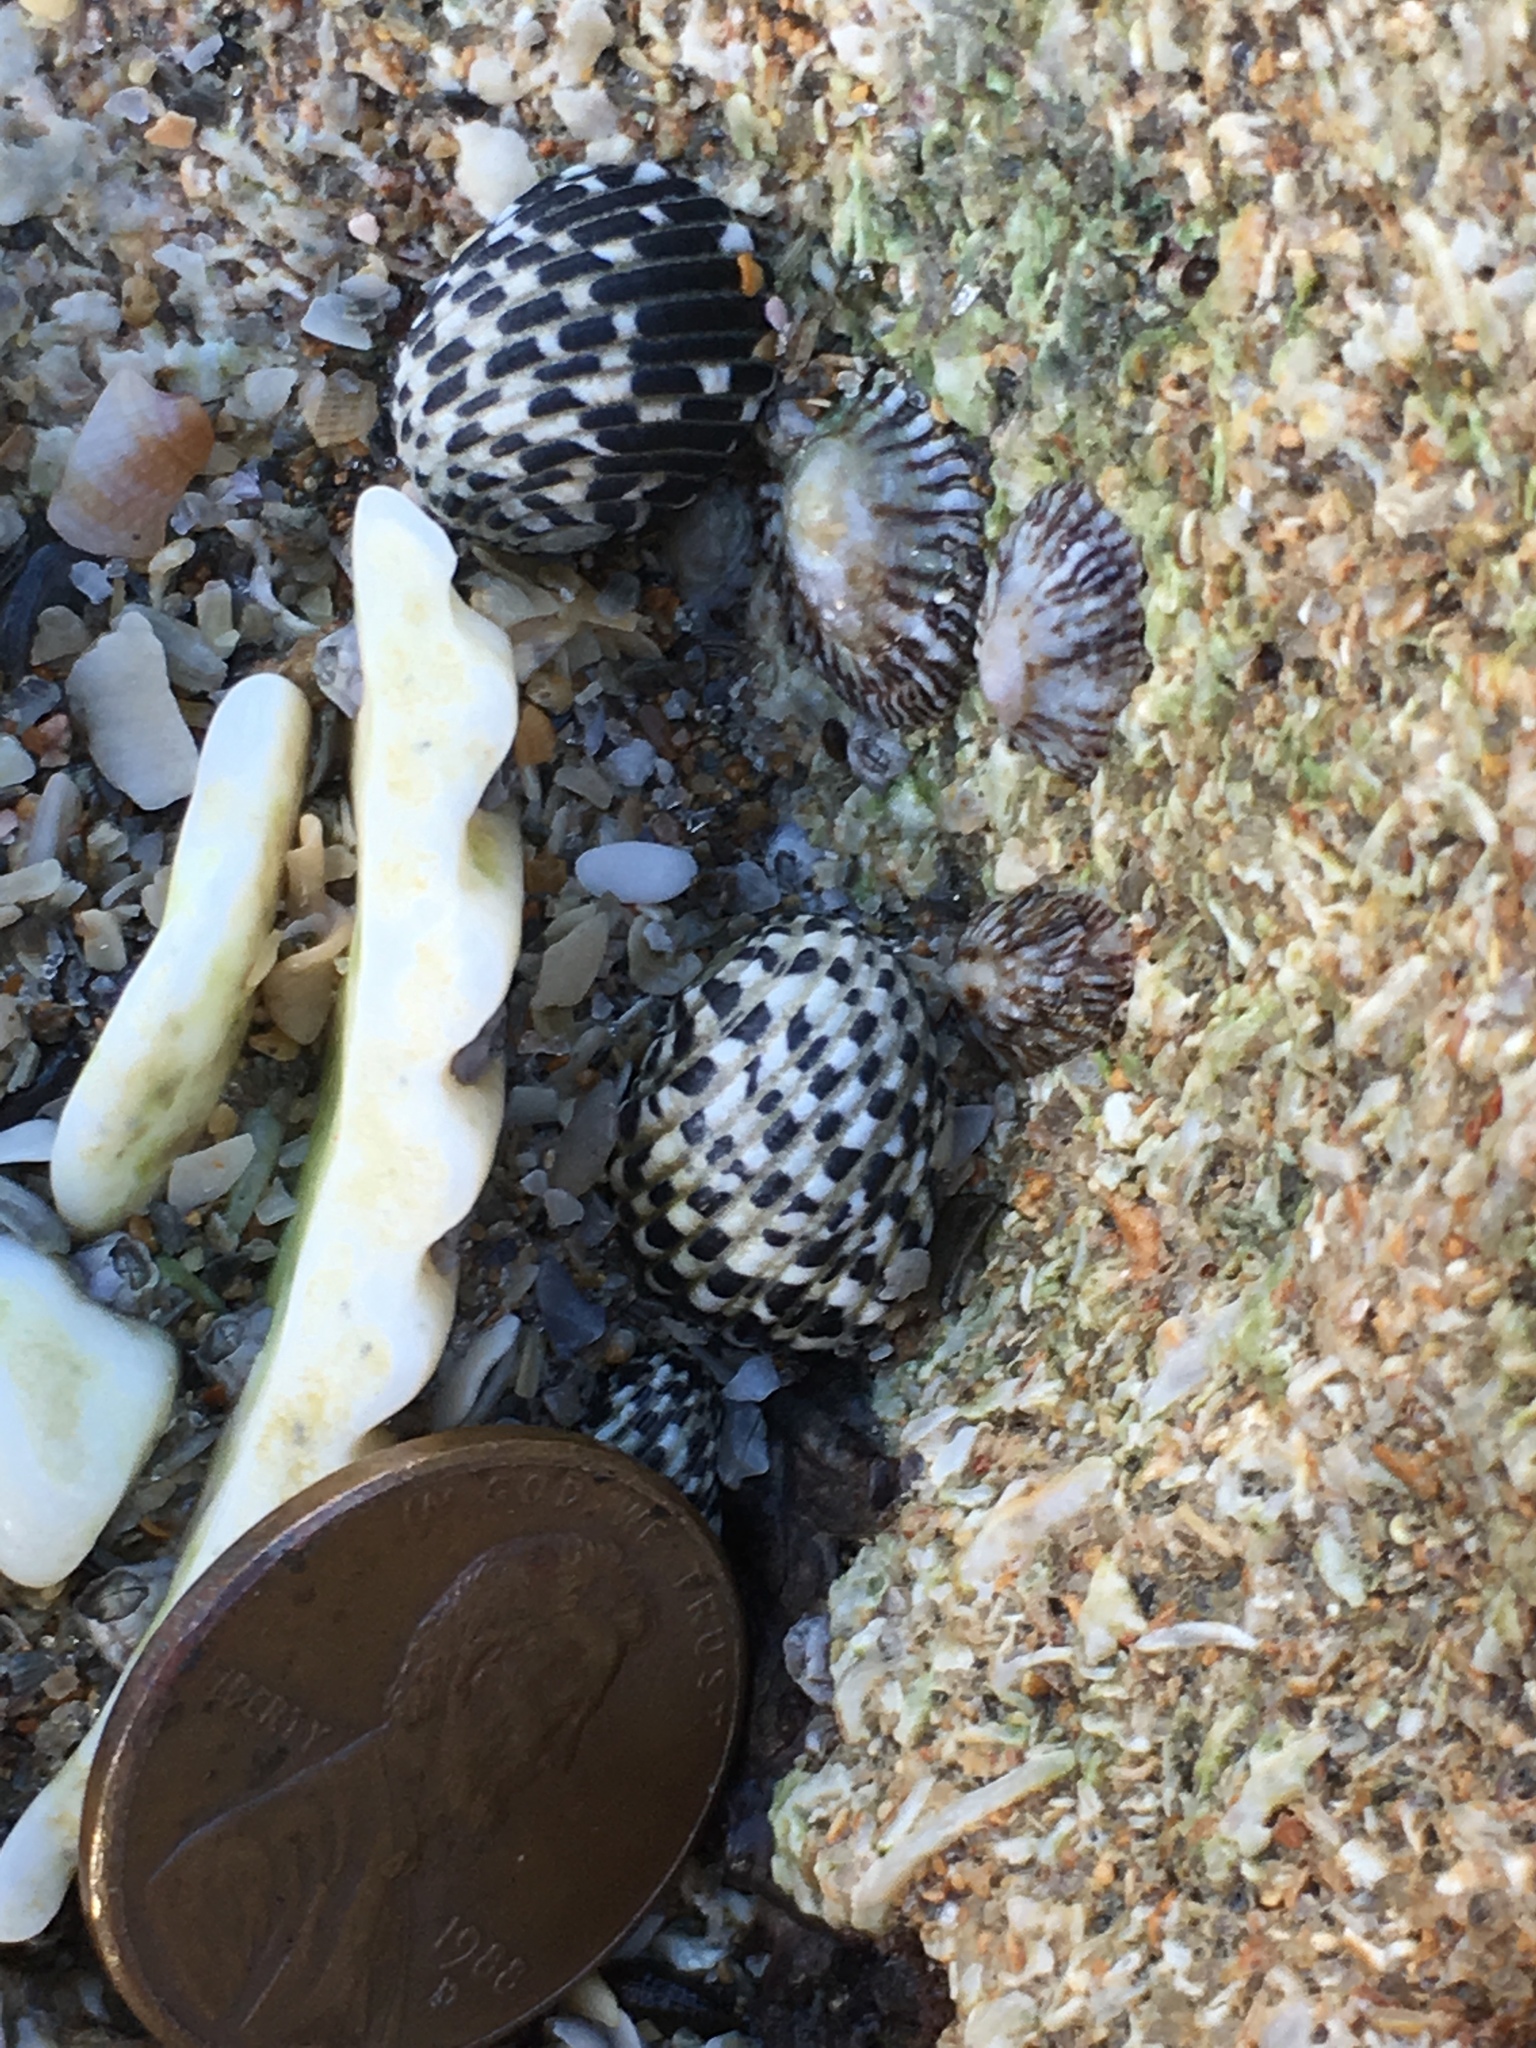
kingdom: Animalia
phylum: Mollusca
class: Gastropoda
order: Cycloneritida
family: Neritidae
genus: Nerita
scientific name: Nerita tessellata
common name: Checkered nerite
